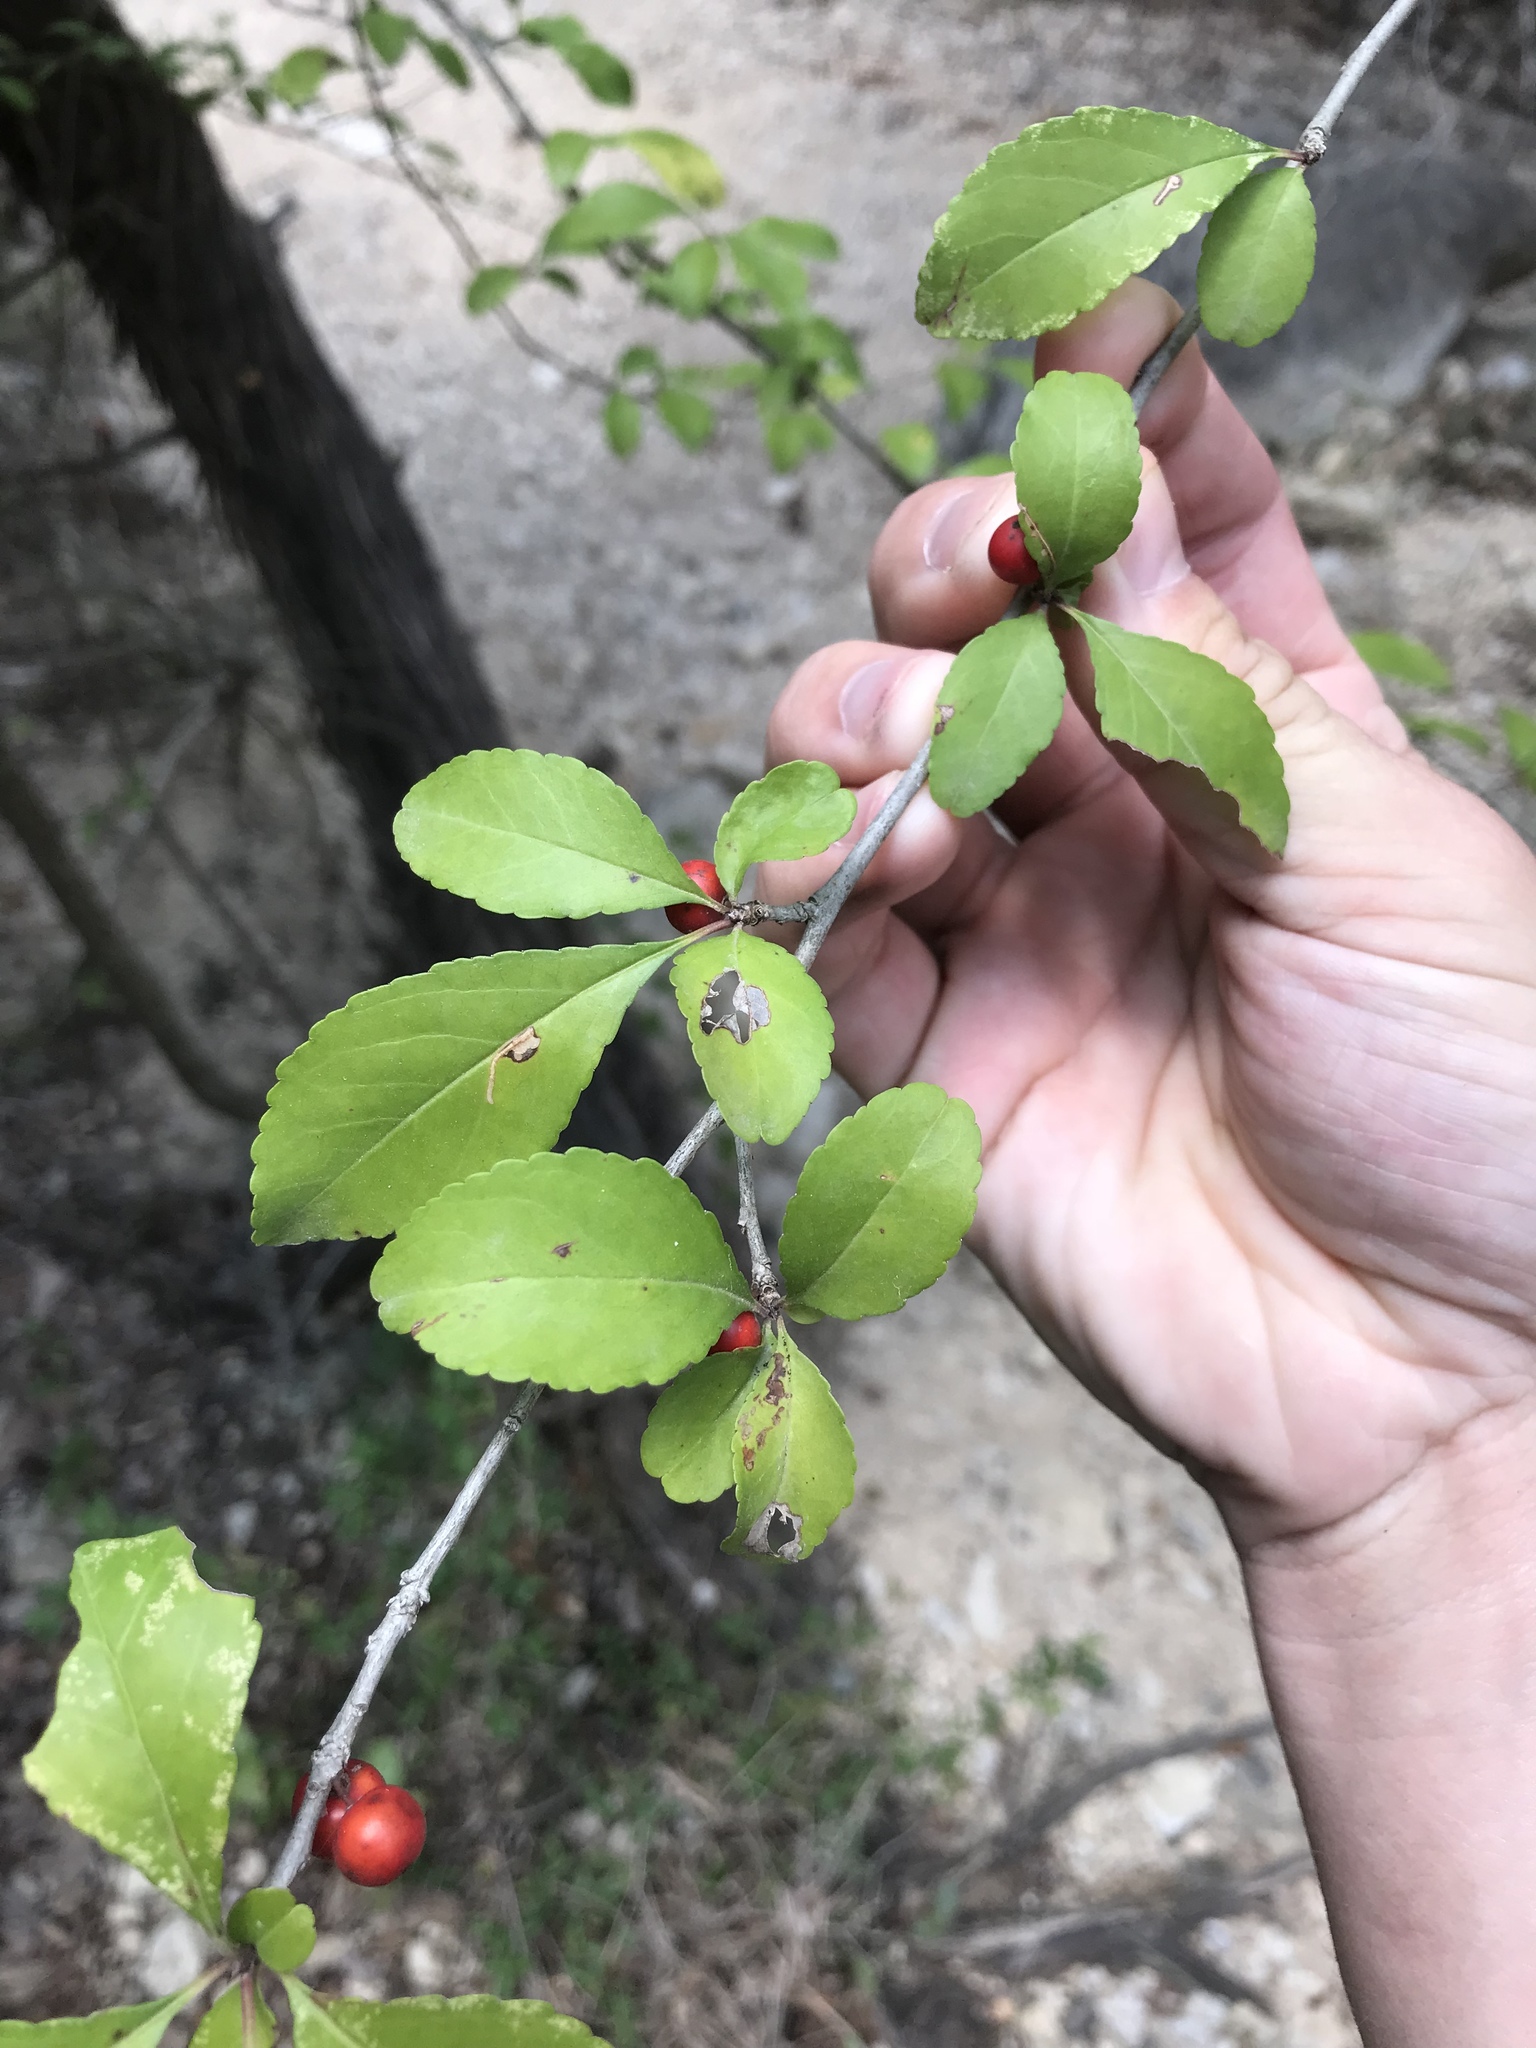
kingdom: Plantae
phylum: Tracheophyta
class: Magnoliopsida
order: Aquifoliales
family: Aquifoliaceae
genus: Ilex
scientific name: Ilex decidua
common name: Possum-haw
